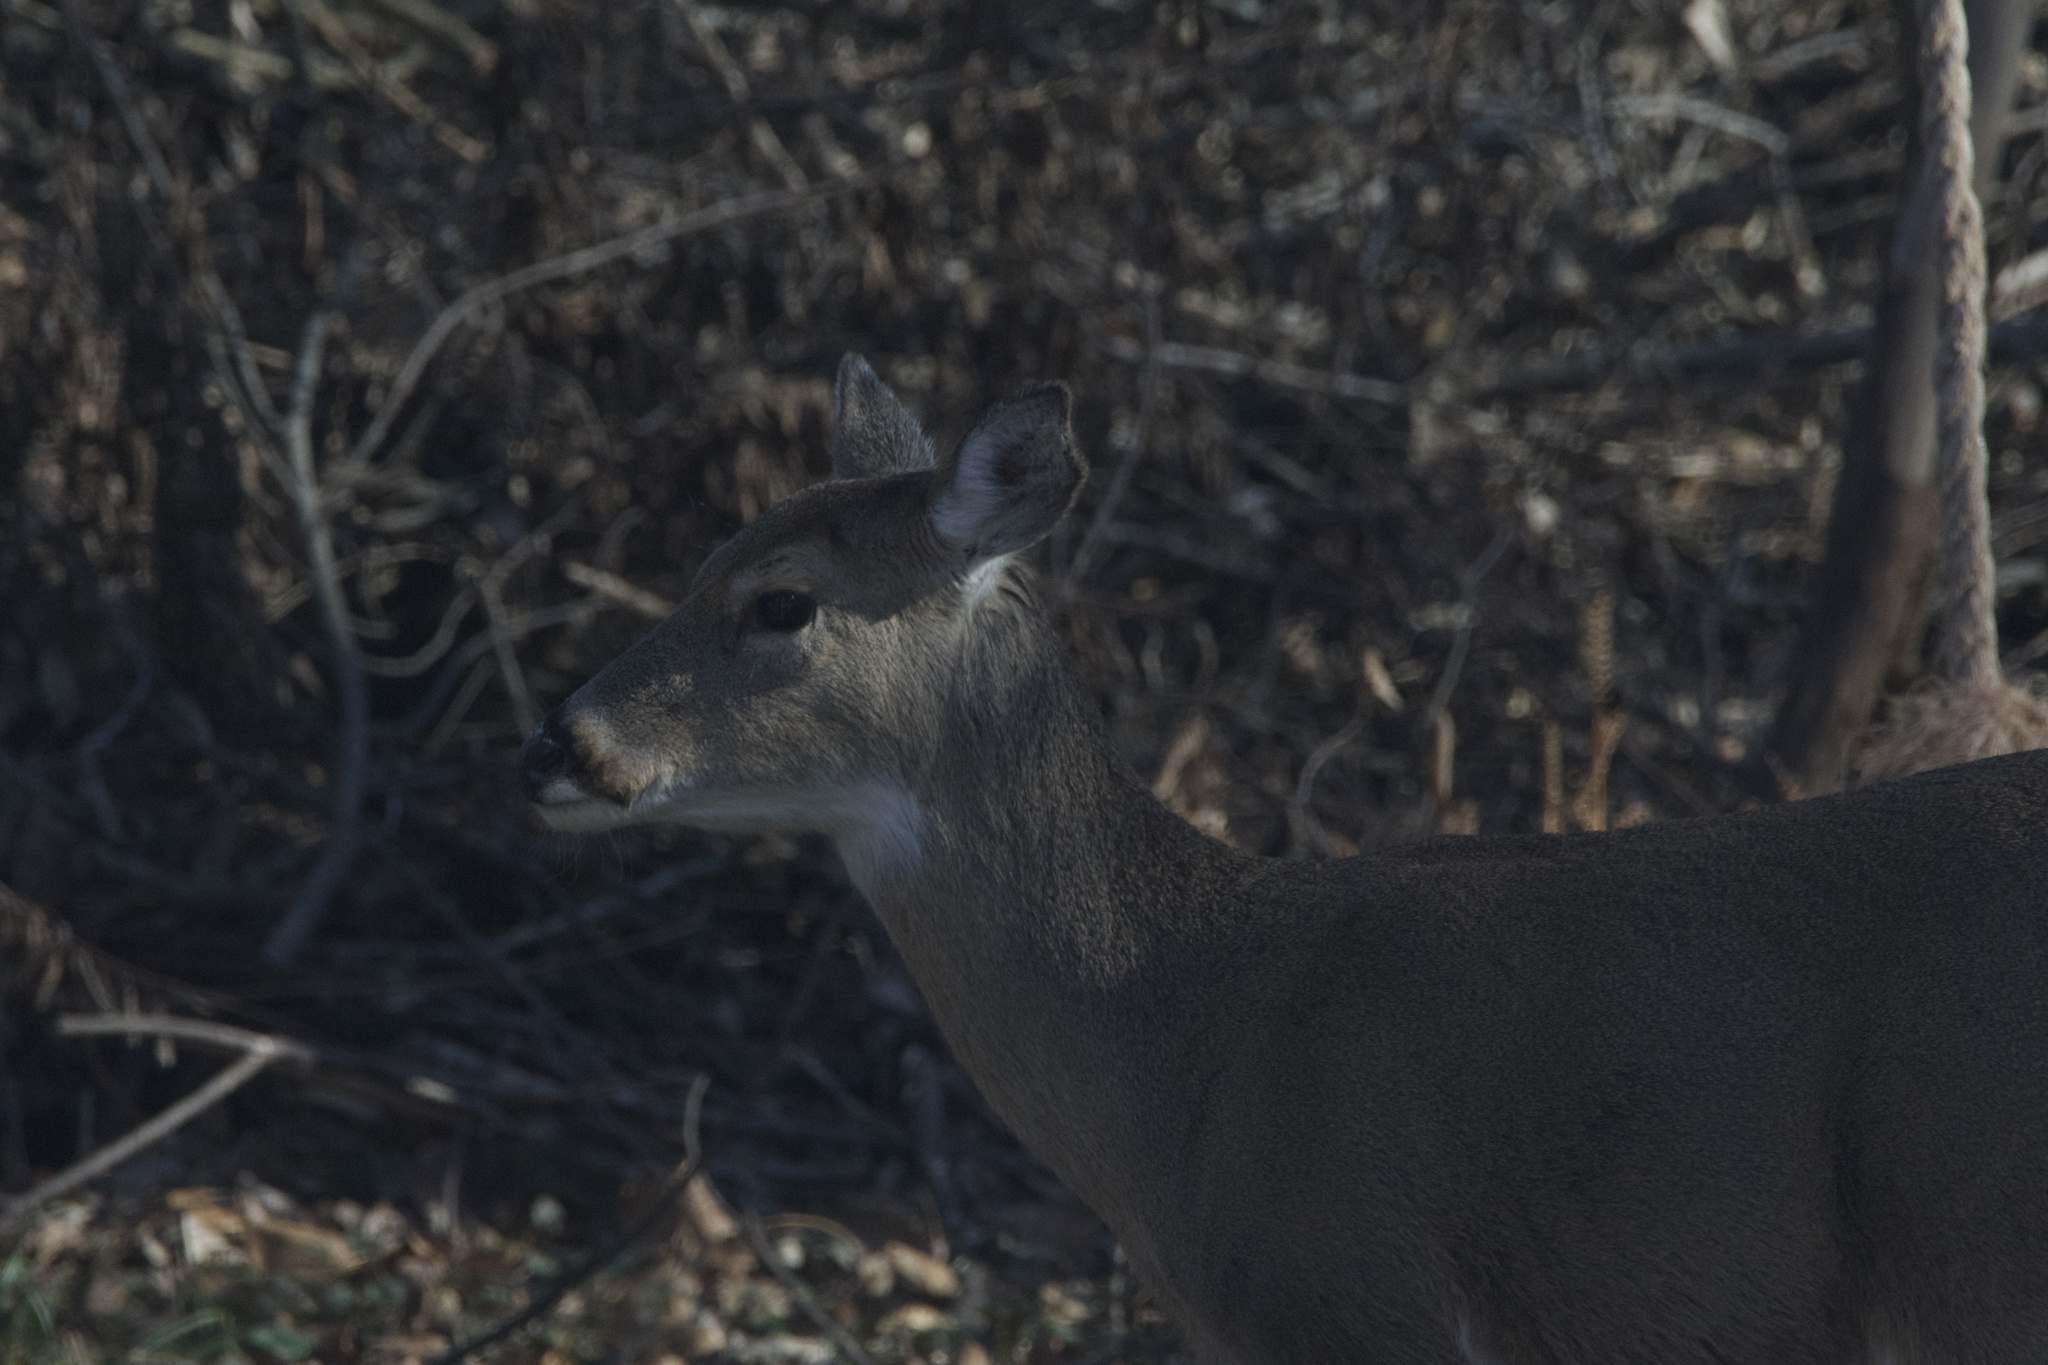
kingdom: Animalia
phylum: Chordata
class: Mammalia
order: Artiodactyla
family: Cervidae
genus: Odocoileus
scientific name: Odocoileus virginianus
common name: White-tailed deer
